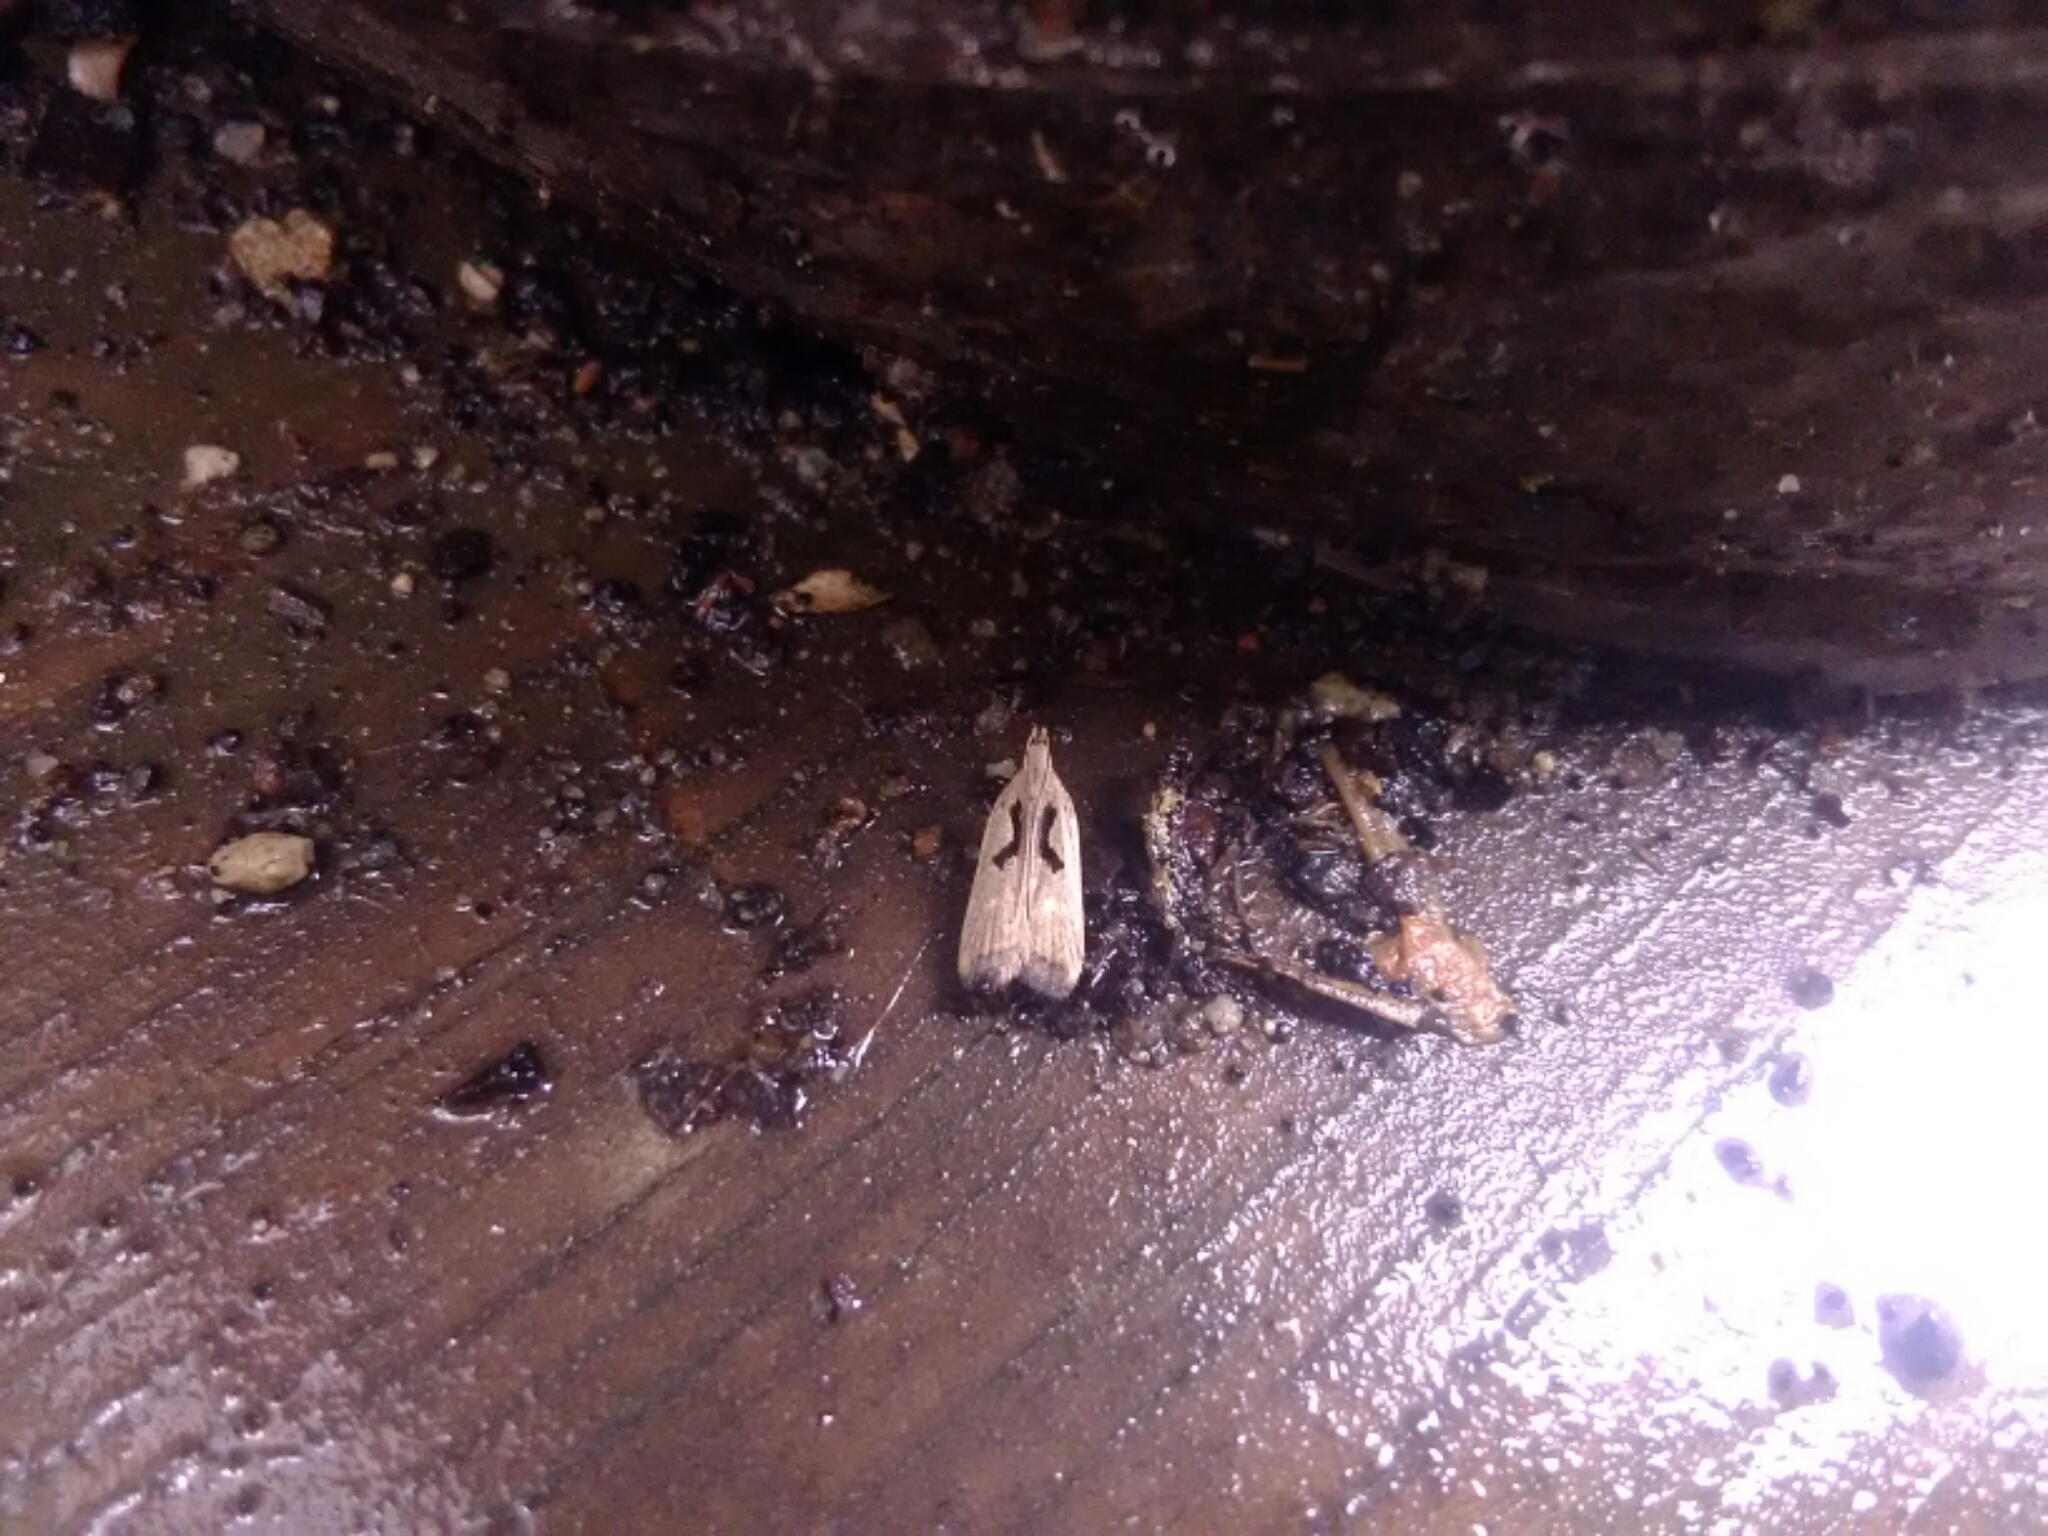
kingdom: Animalia
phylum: Arthropoda
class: Insecta
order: Lepidoptera
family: Gelechiidae
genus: Dichomeris
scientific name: Dichomeris laetitia
